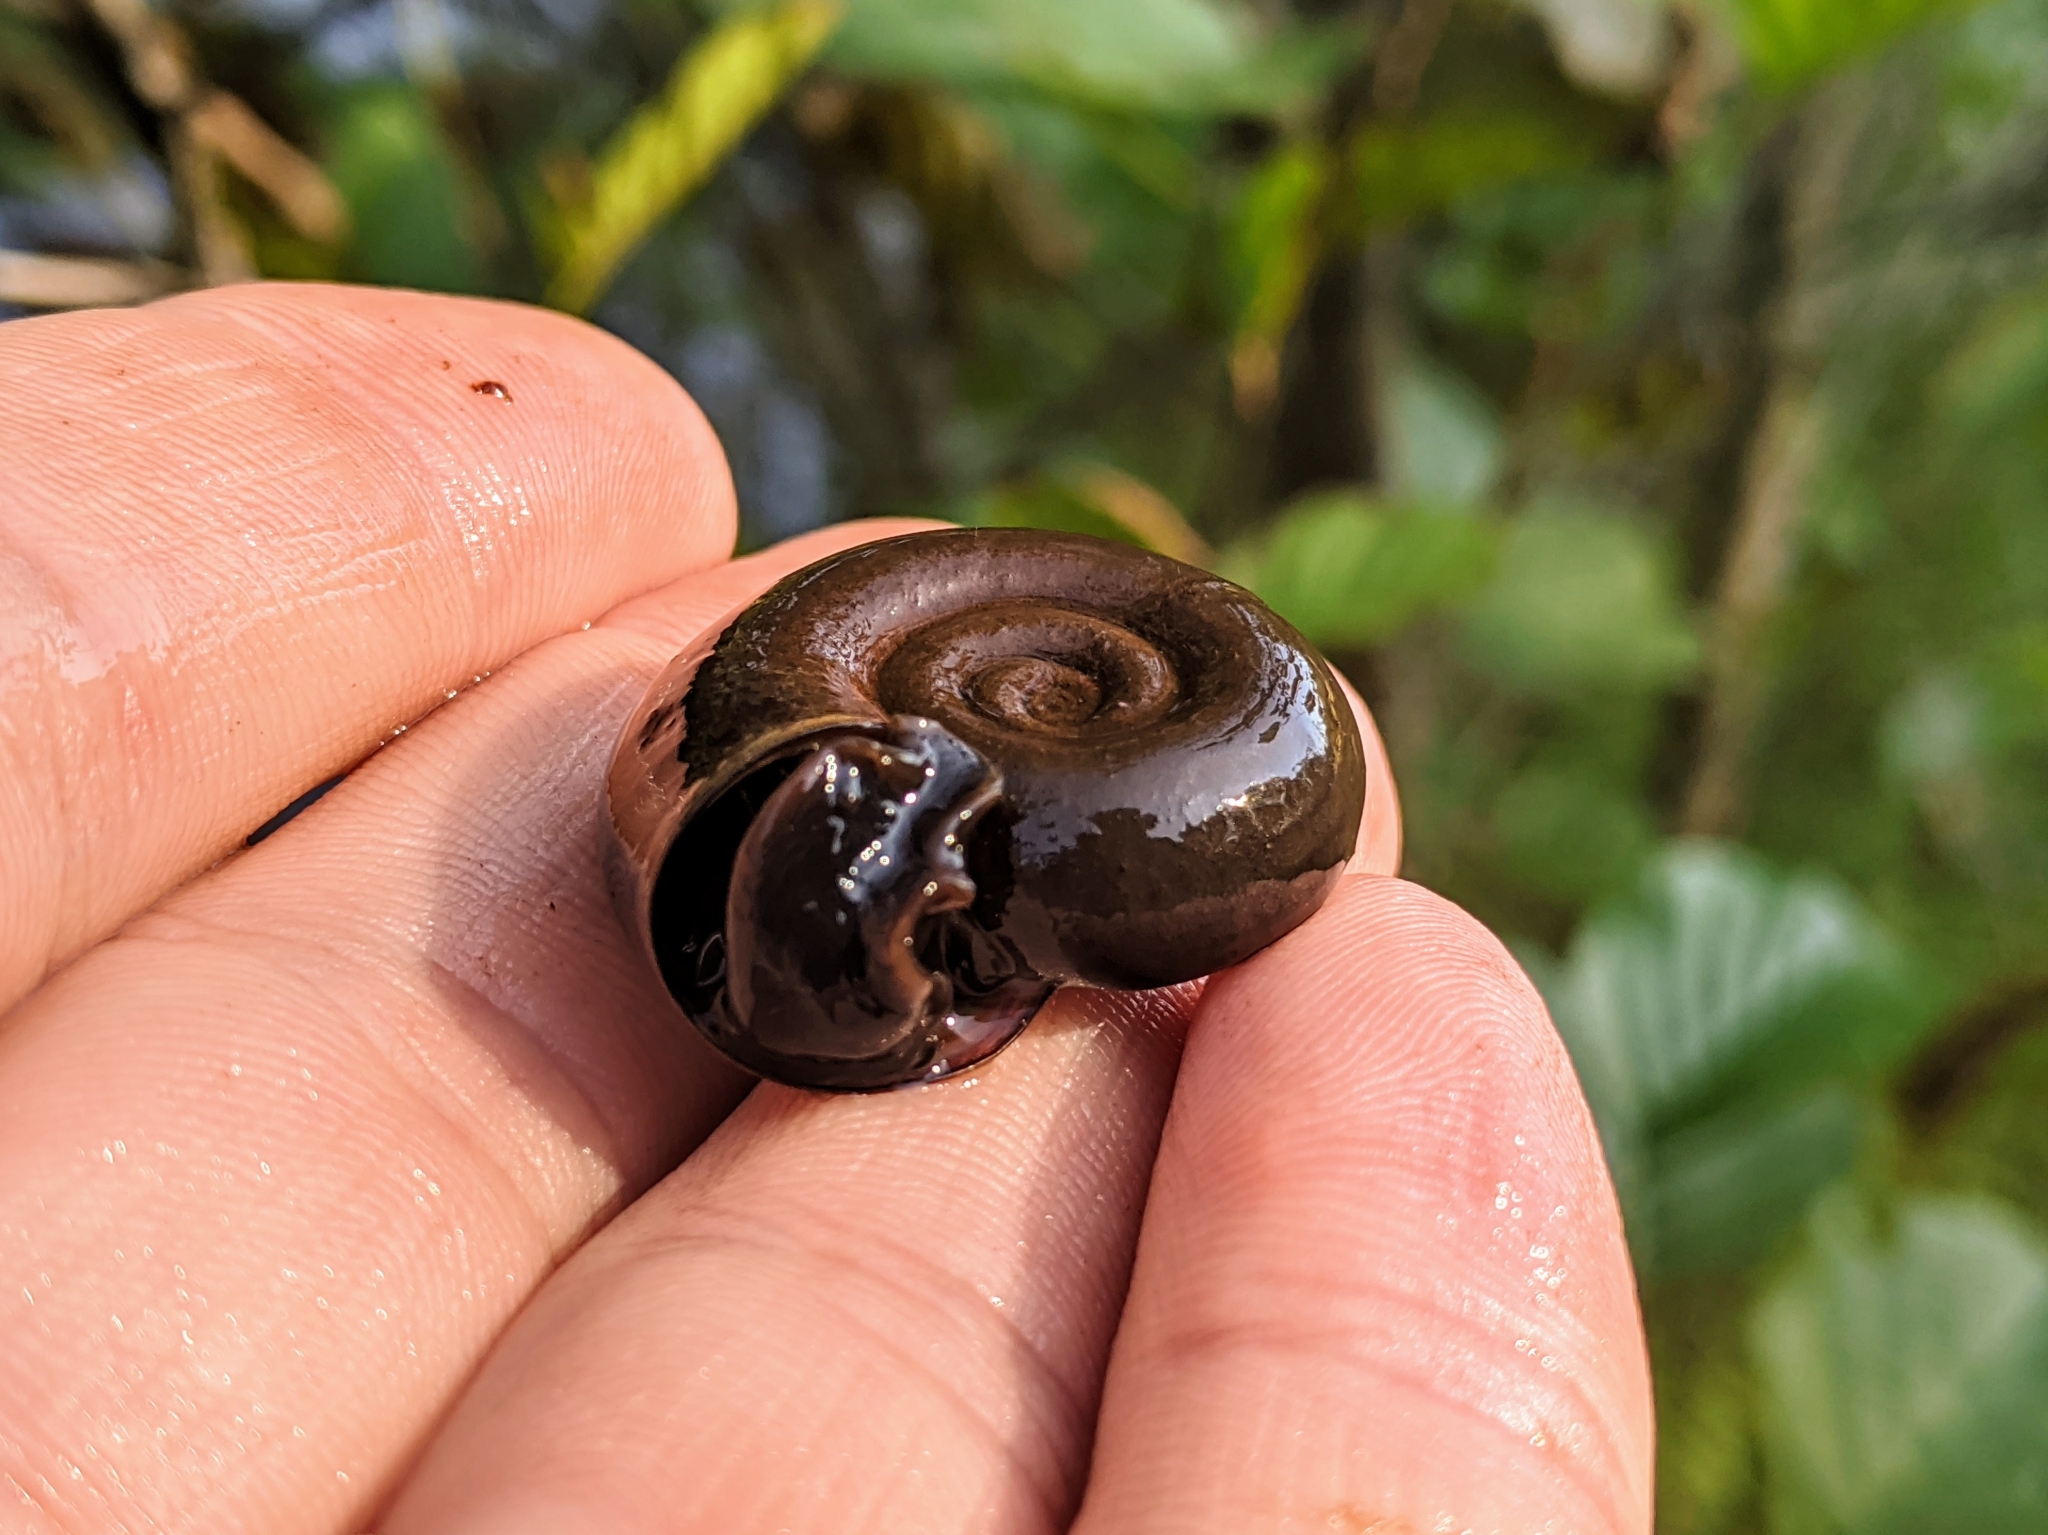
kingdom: Animalia
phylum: Mollusca
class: Gastropoda
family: Planorbidae
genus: Planorbarius
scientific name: Planorbarius corneus
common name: Great ramshorn
